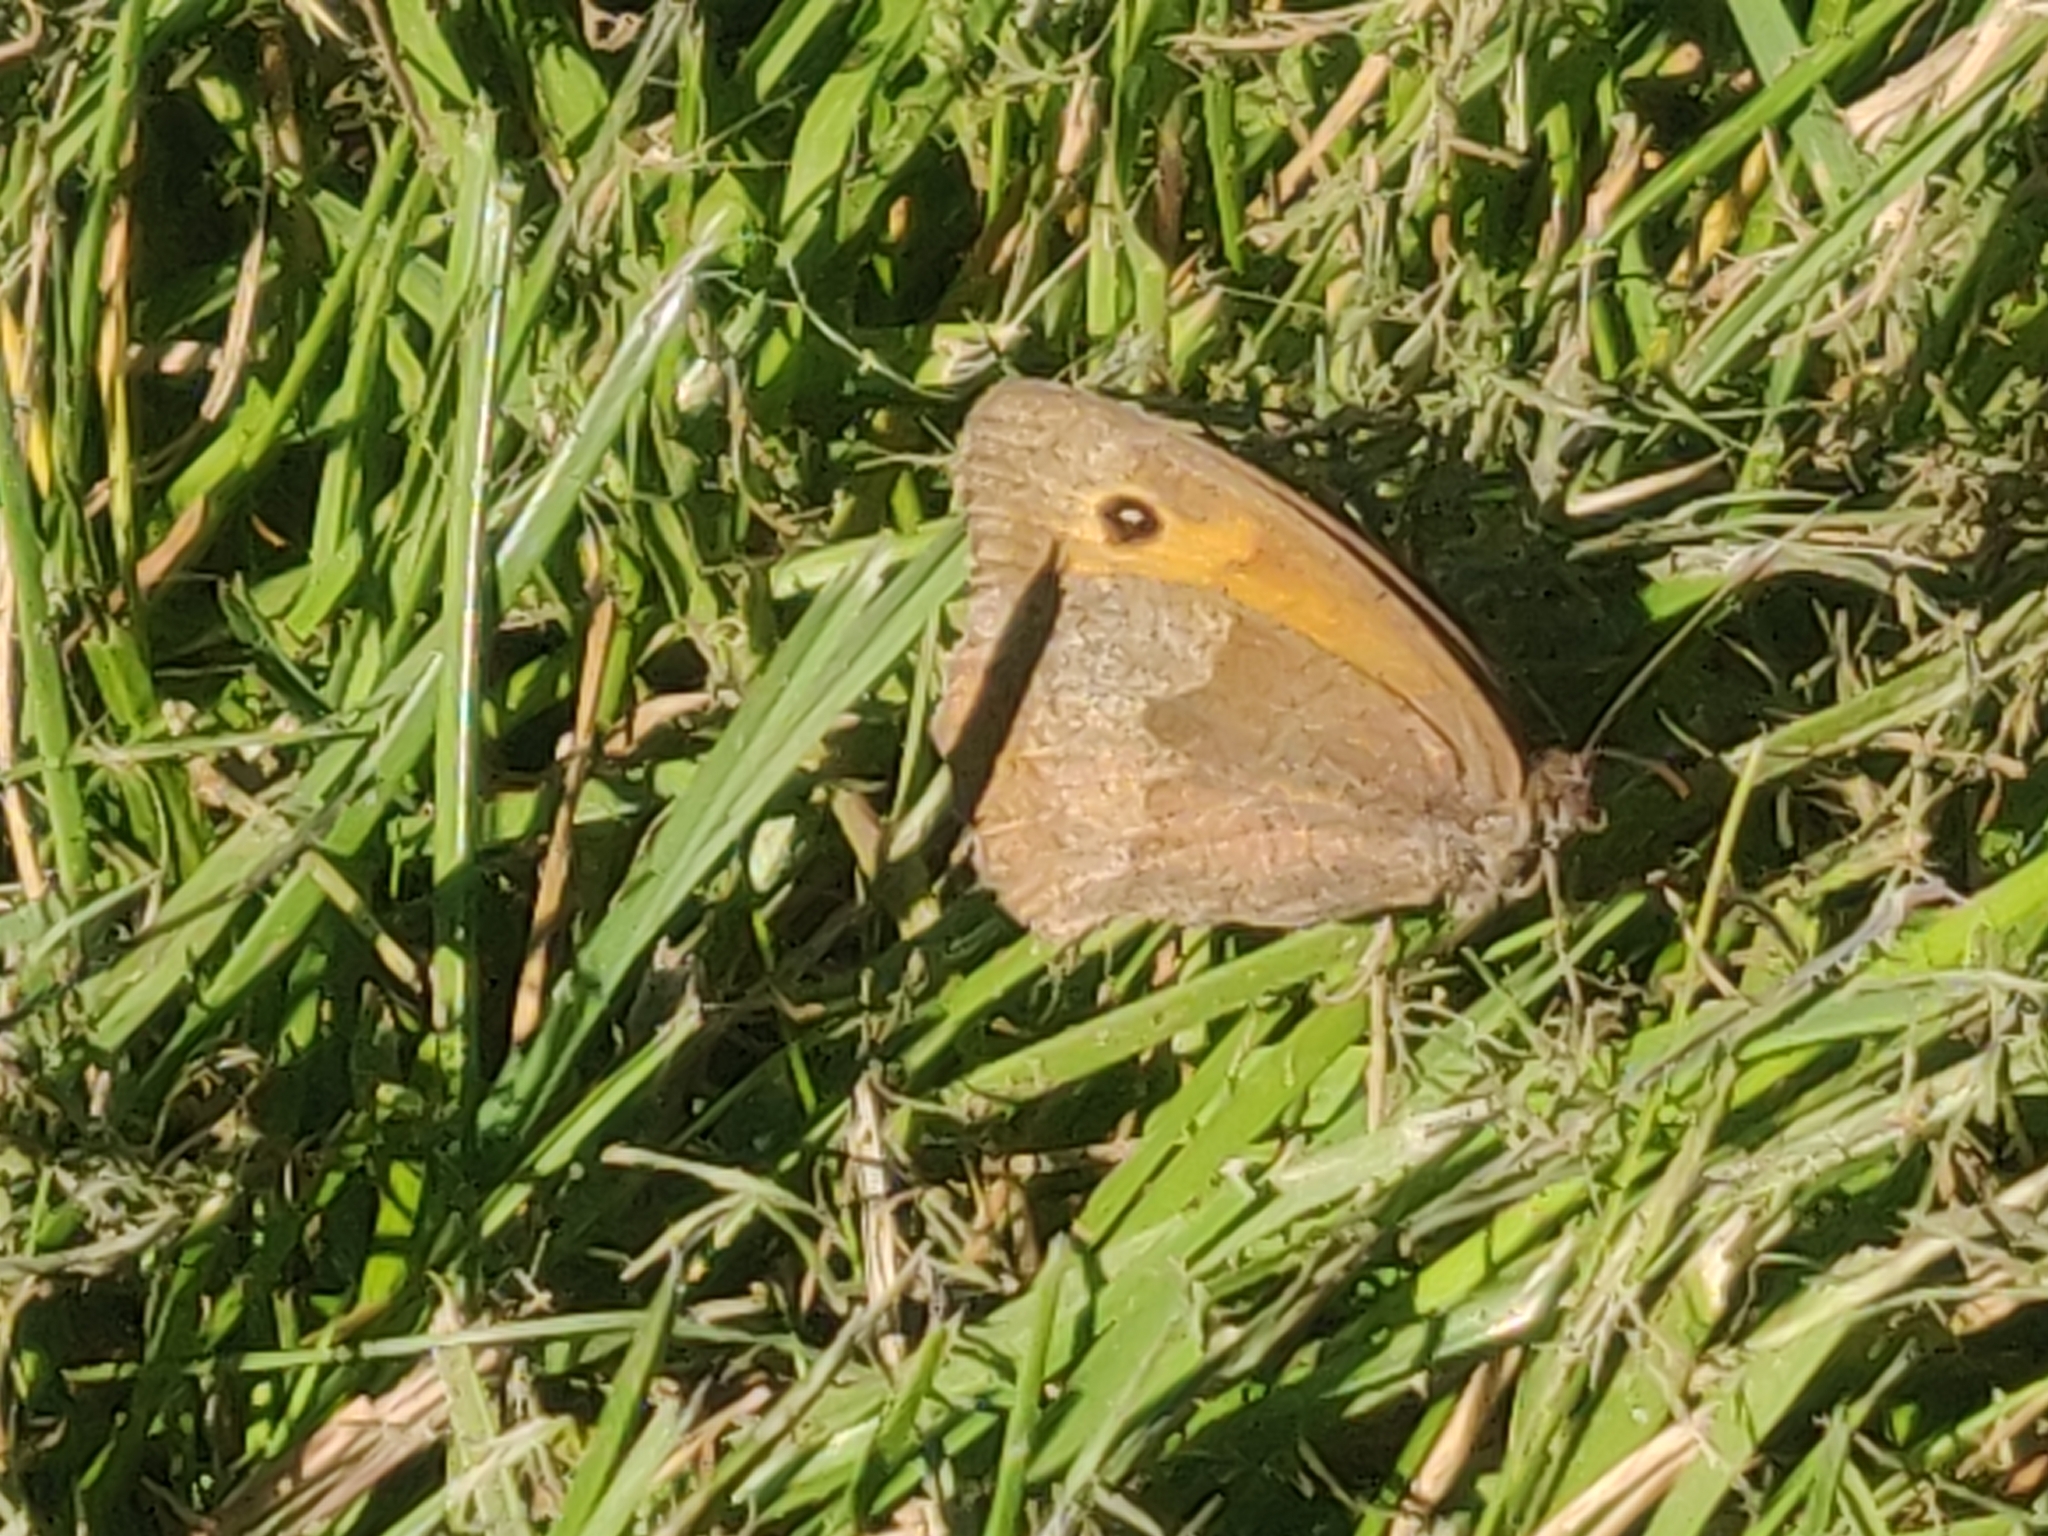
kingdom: Animalia
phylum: Arthropoda
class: Insecta
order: Lepidoptera
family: Nymphalidae
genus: Maniola
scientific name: Maniola jurtina
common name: Meadow brown
